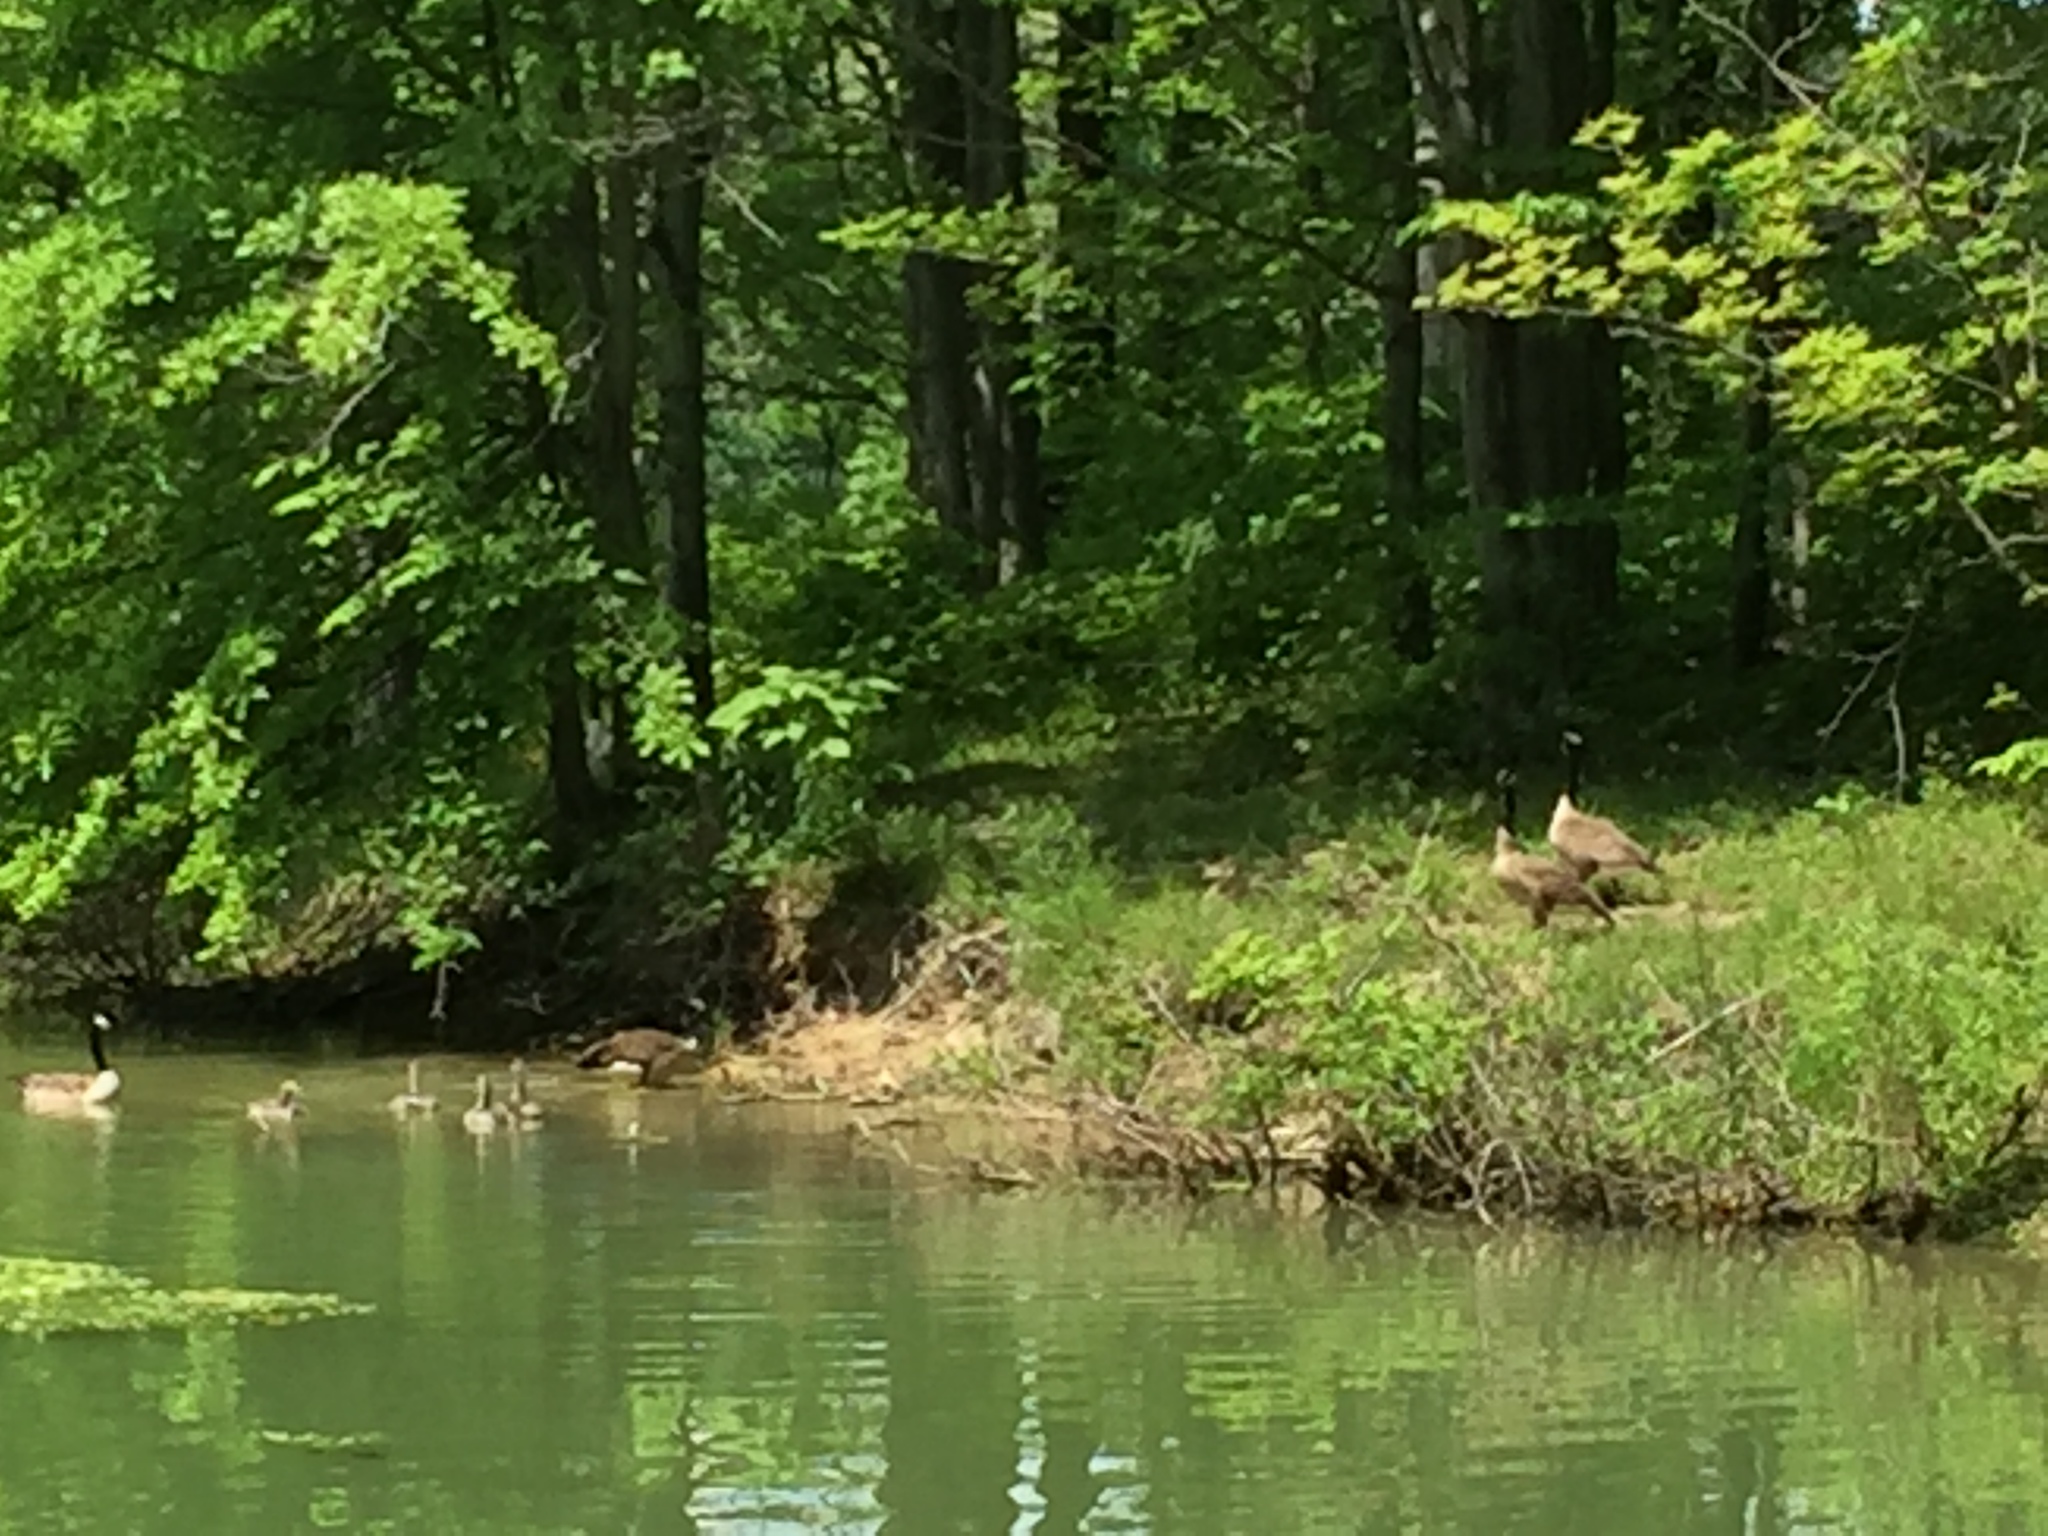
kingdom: Animalia
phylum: Chordata
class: Aves
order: Anseriformes
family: Anatidae
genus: Branta
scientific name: Branta canadensis
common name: Canada goose
